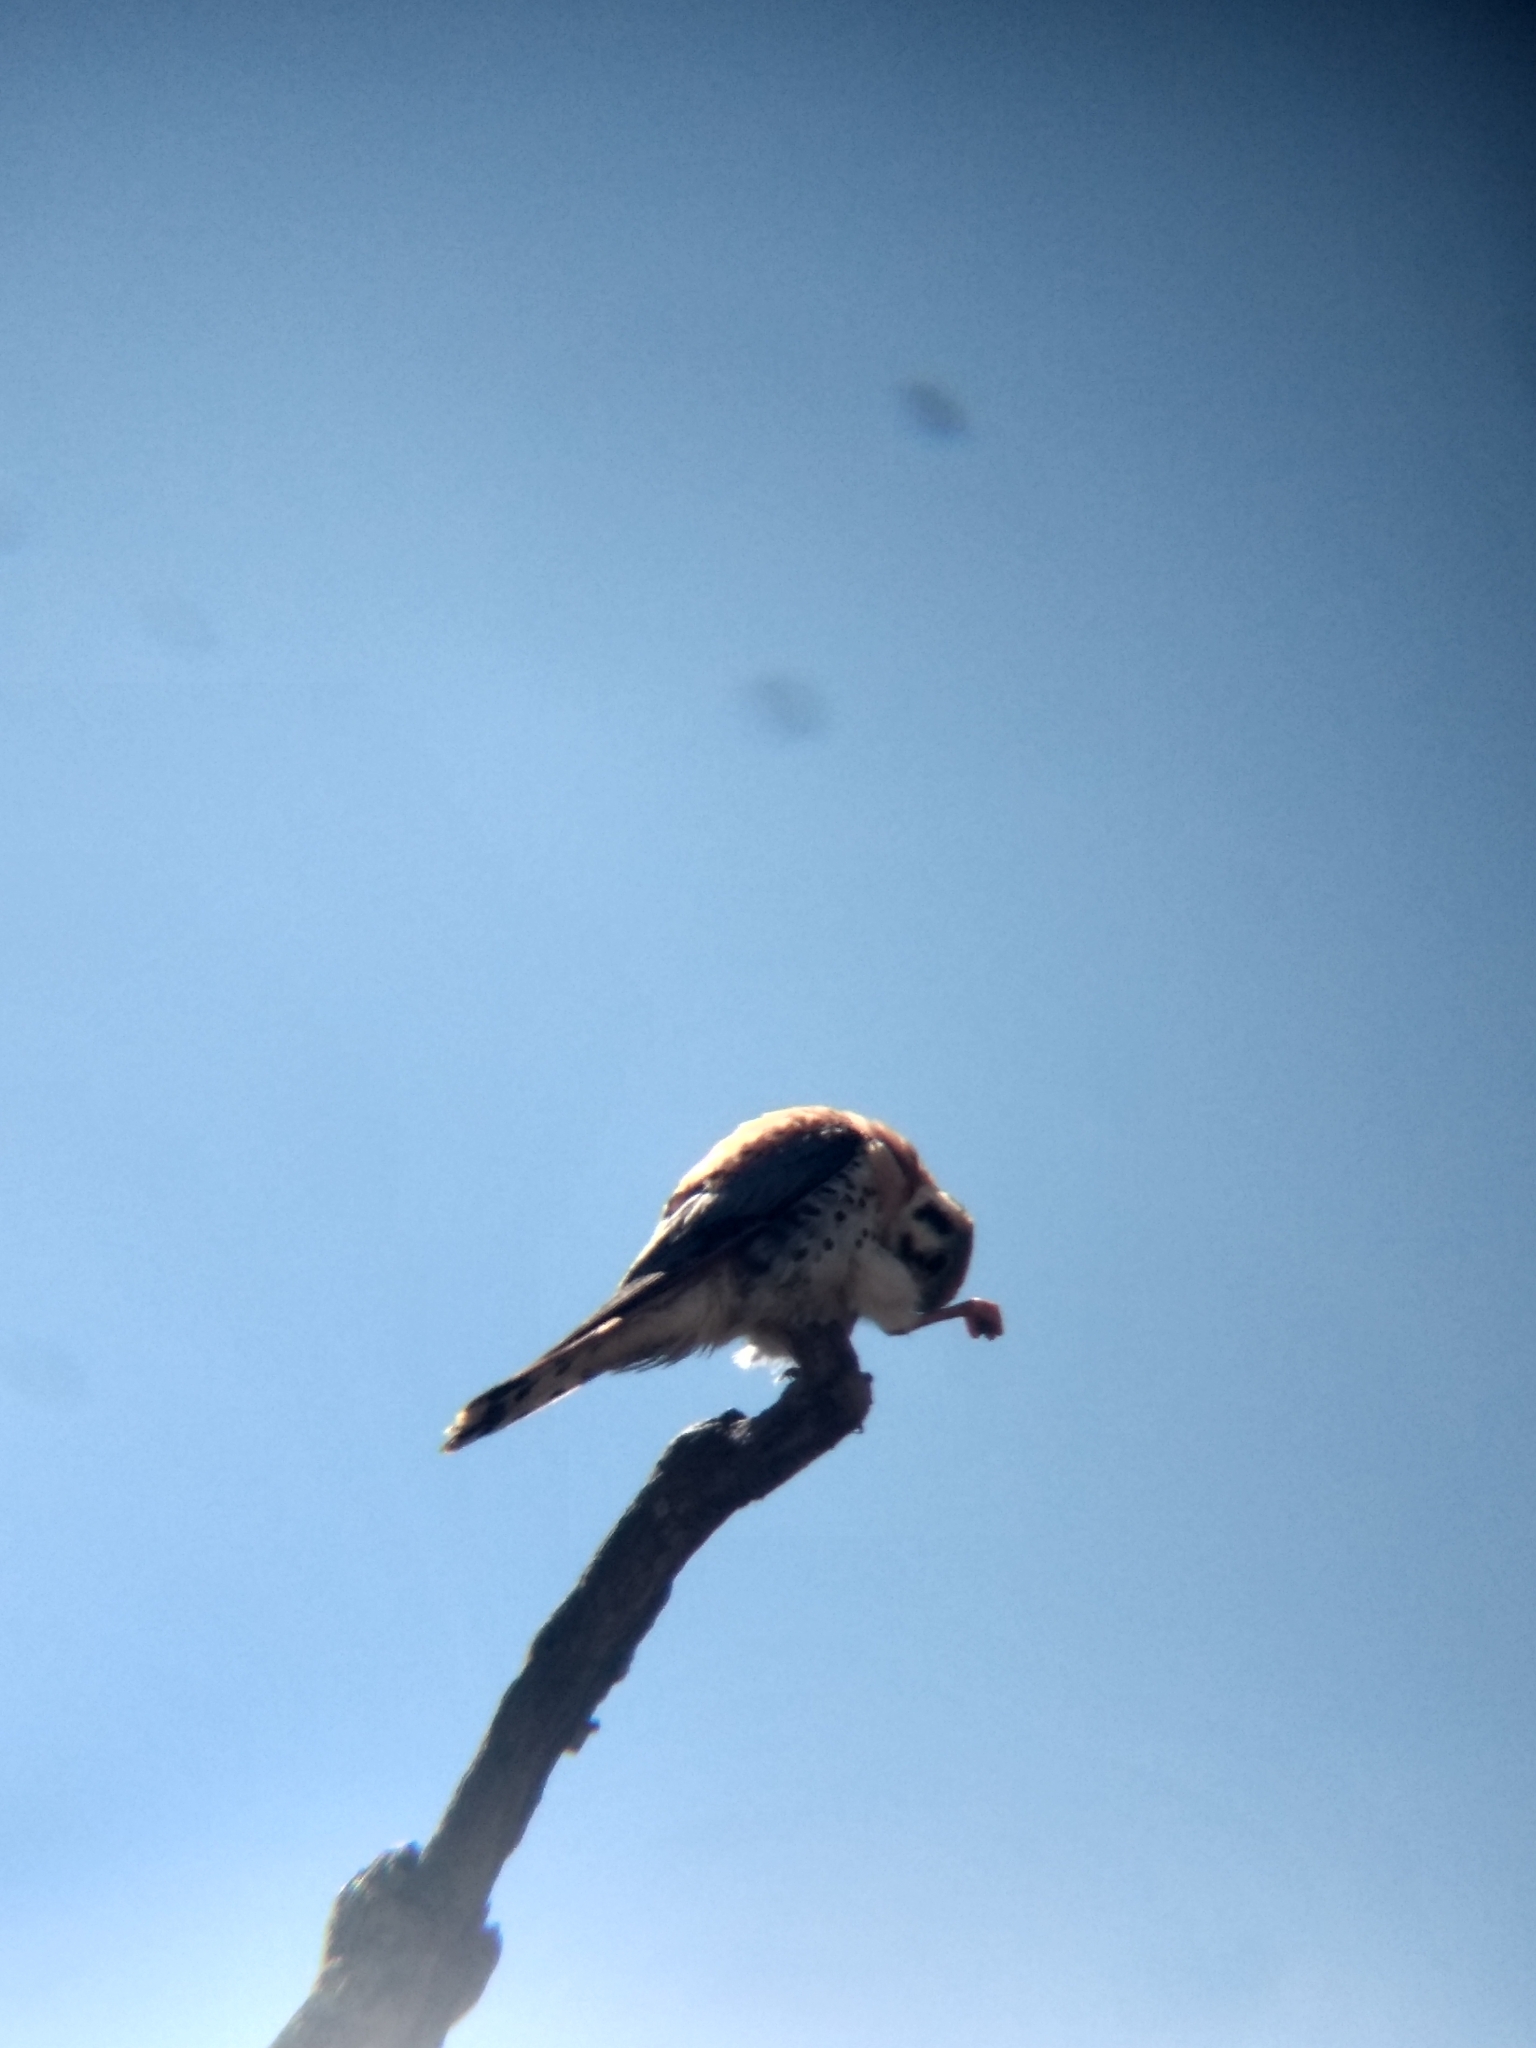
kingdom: Animalia
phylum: Chordata
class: Aves
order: Falconiformes
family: Falconidae
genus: Falco
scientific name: Falco sparverius
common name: American kestrel
